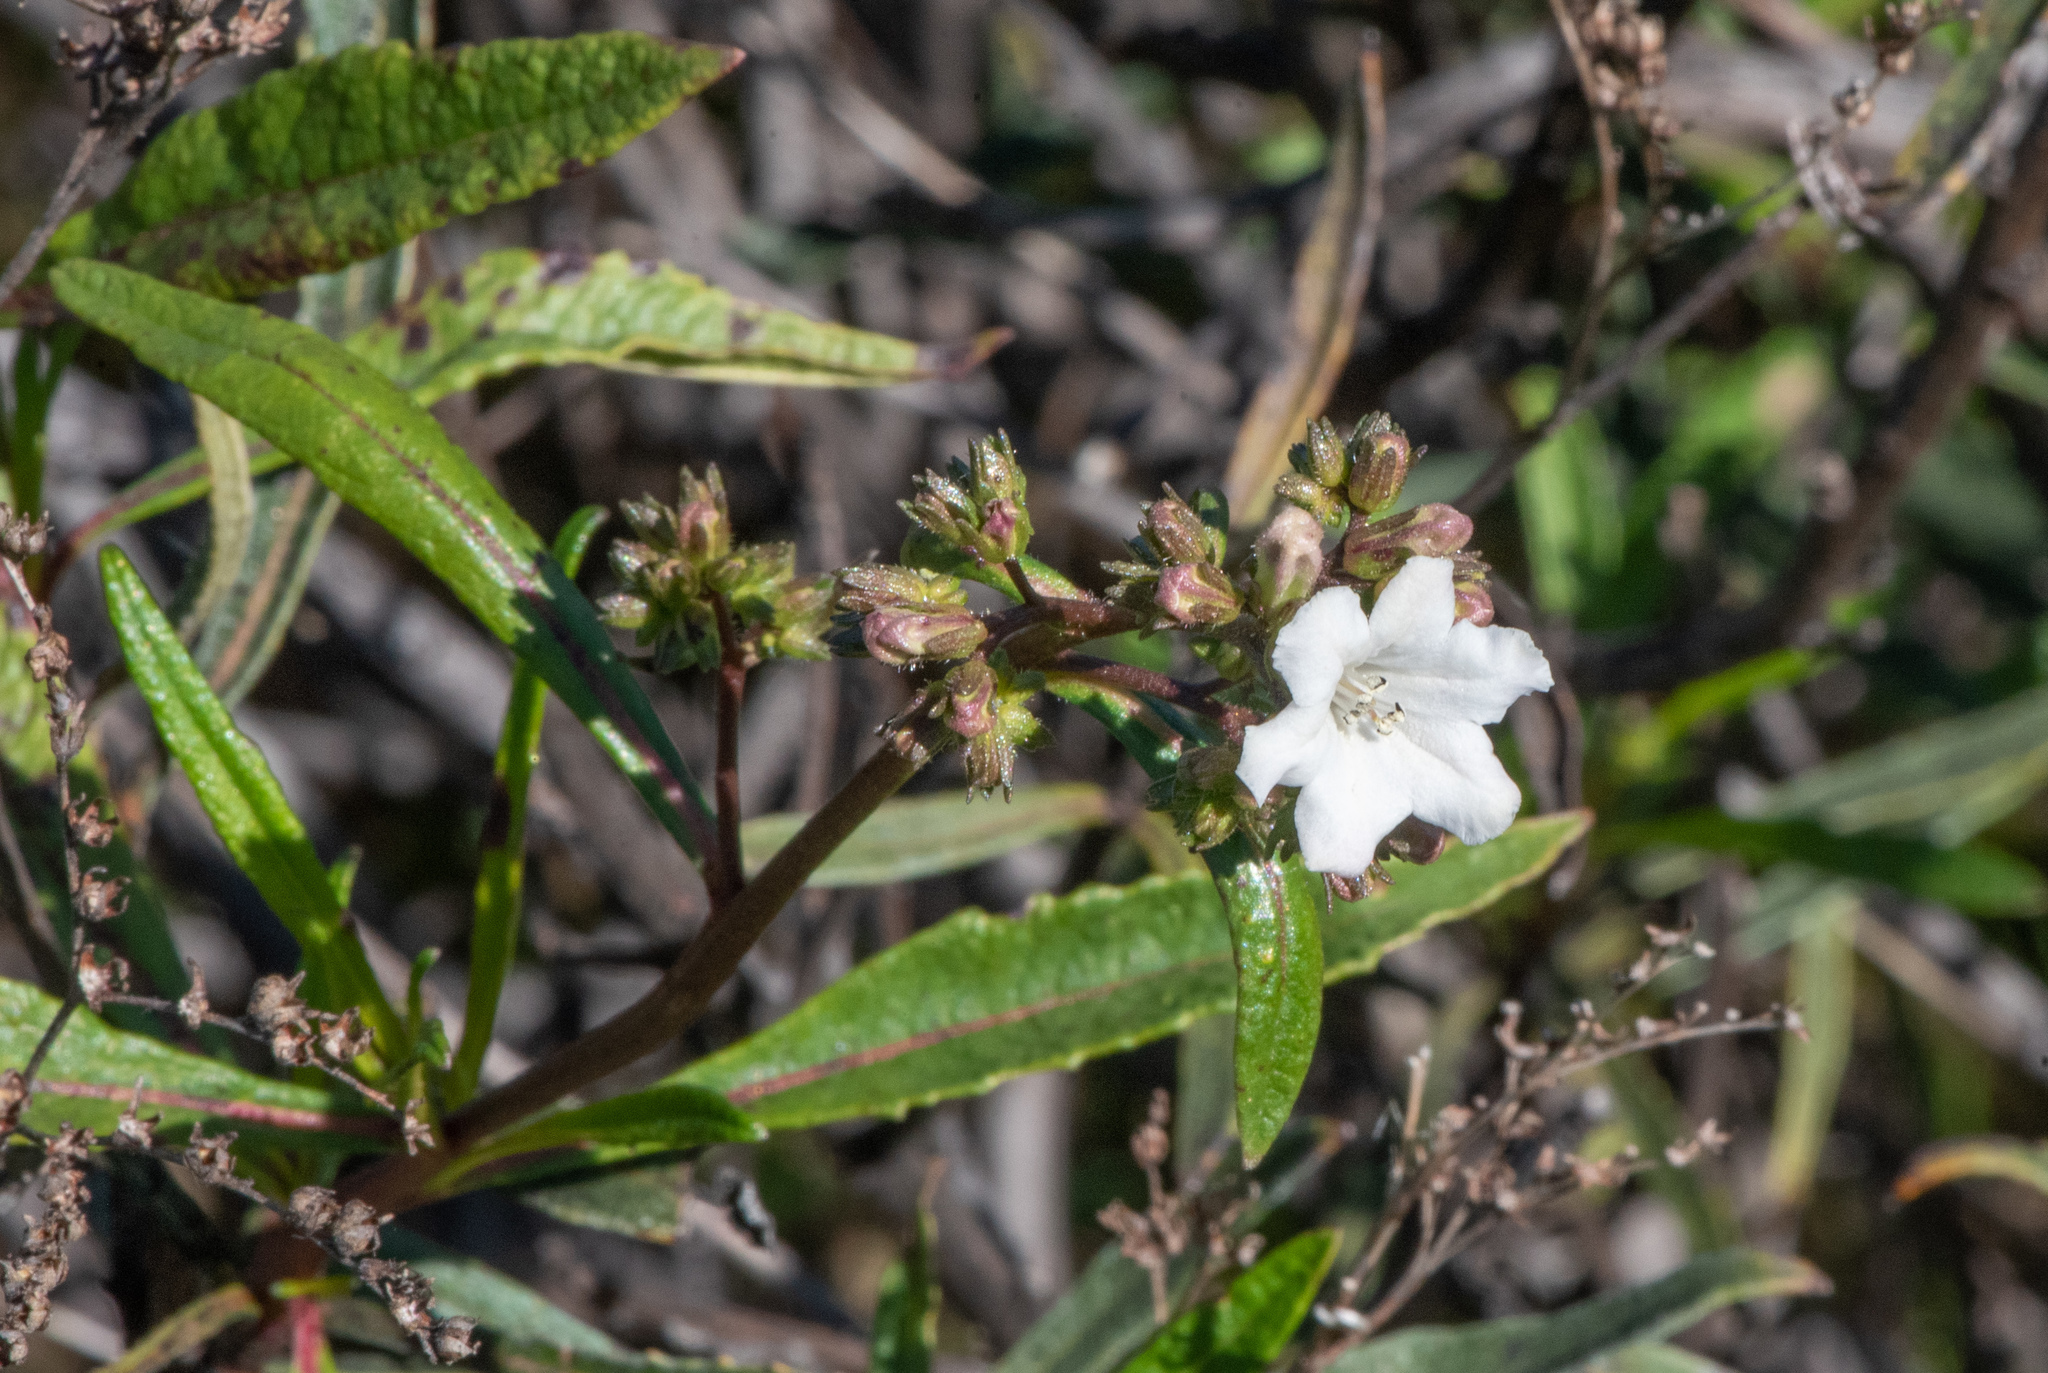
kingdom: Plantae
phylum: Tracheophyta
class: Magnoliopsida
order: Boraginales
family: Namaceae
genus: Eriodictyon
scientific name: Eriodictyon californicum
